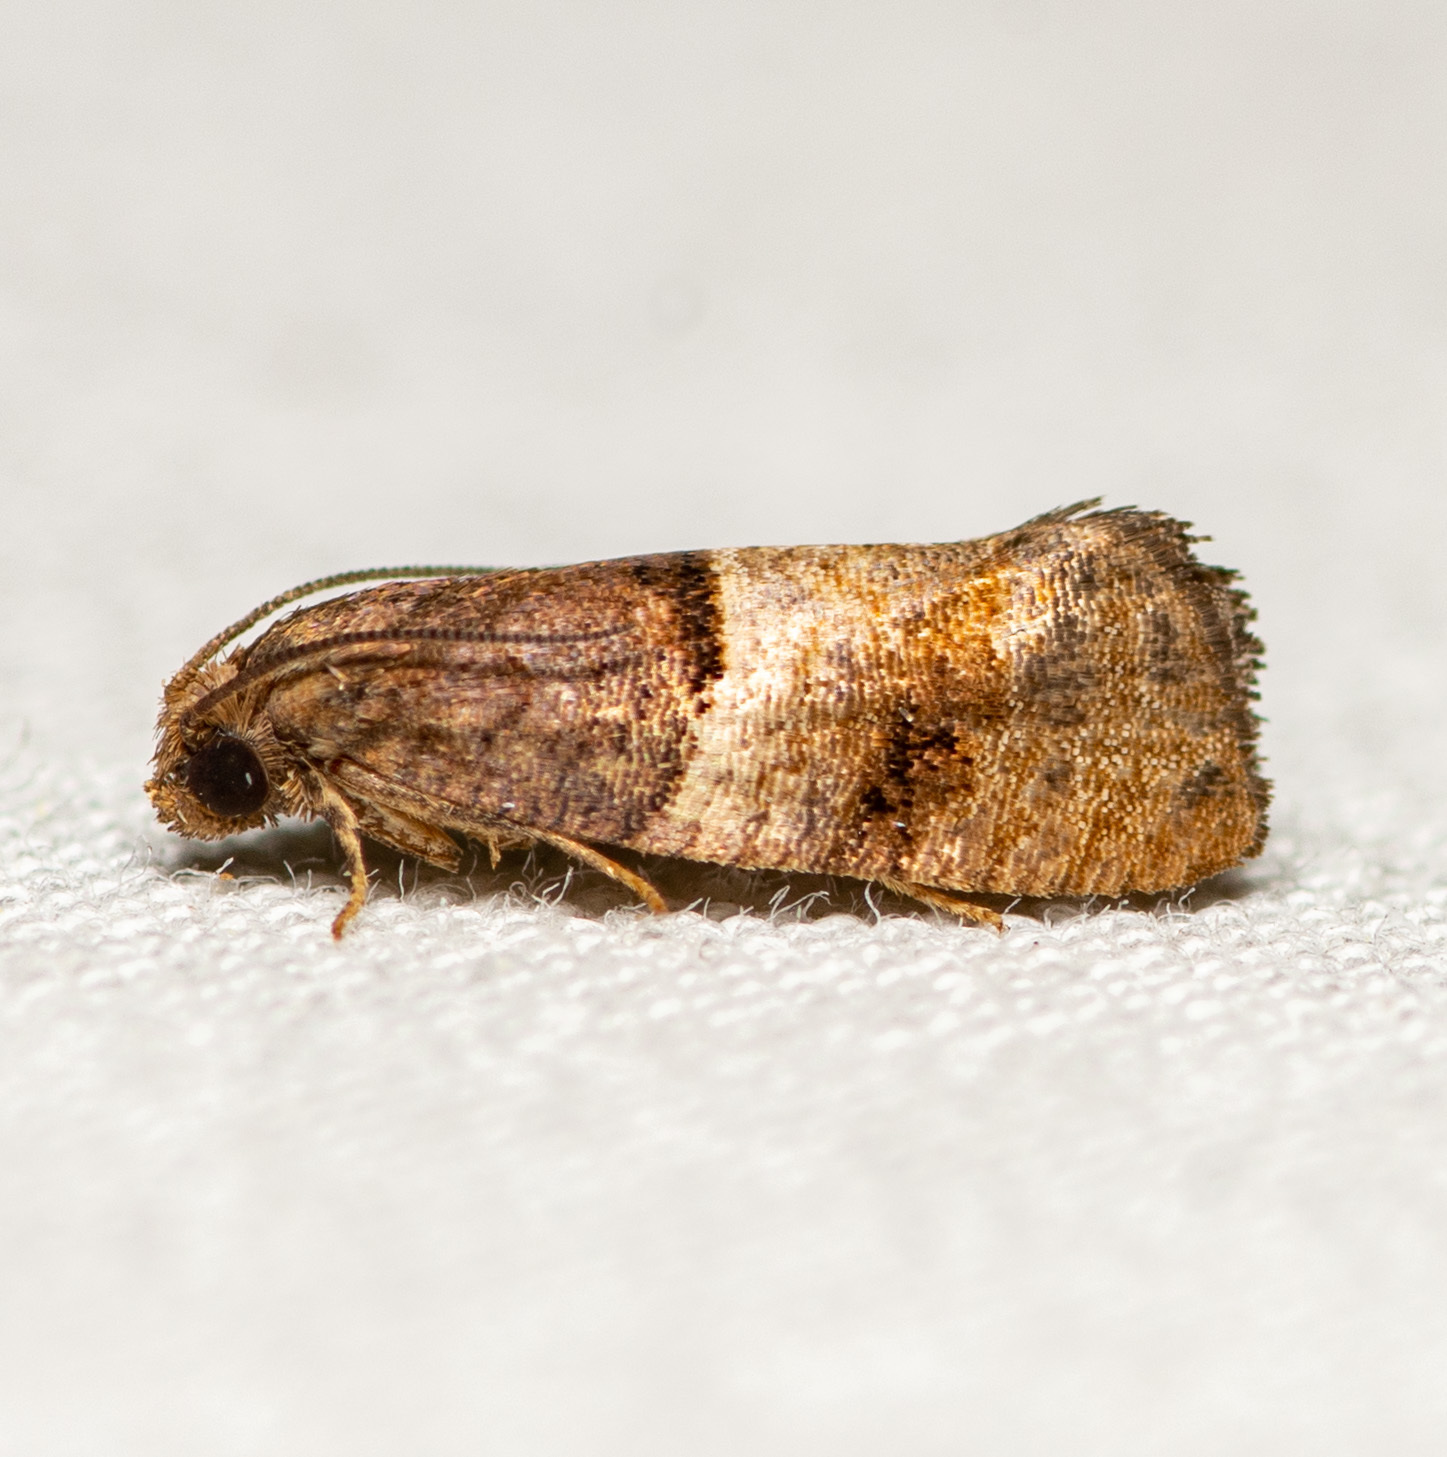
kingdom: Animalia
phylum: Arthropoda
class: Insecta
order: Lepidoptera
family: Tortricidae
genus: Larisa
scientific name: Larisa subsolana
